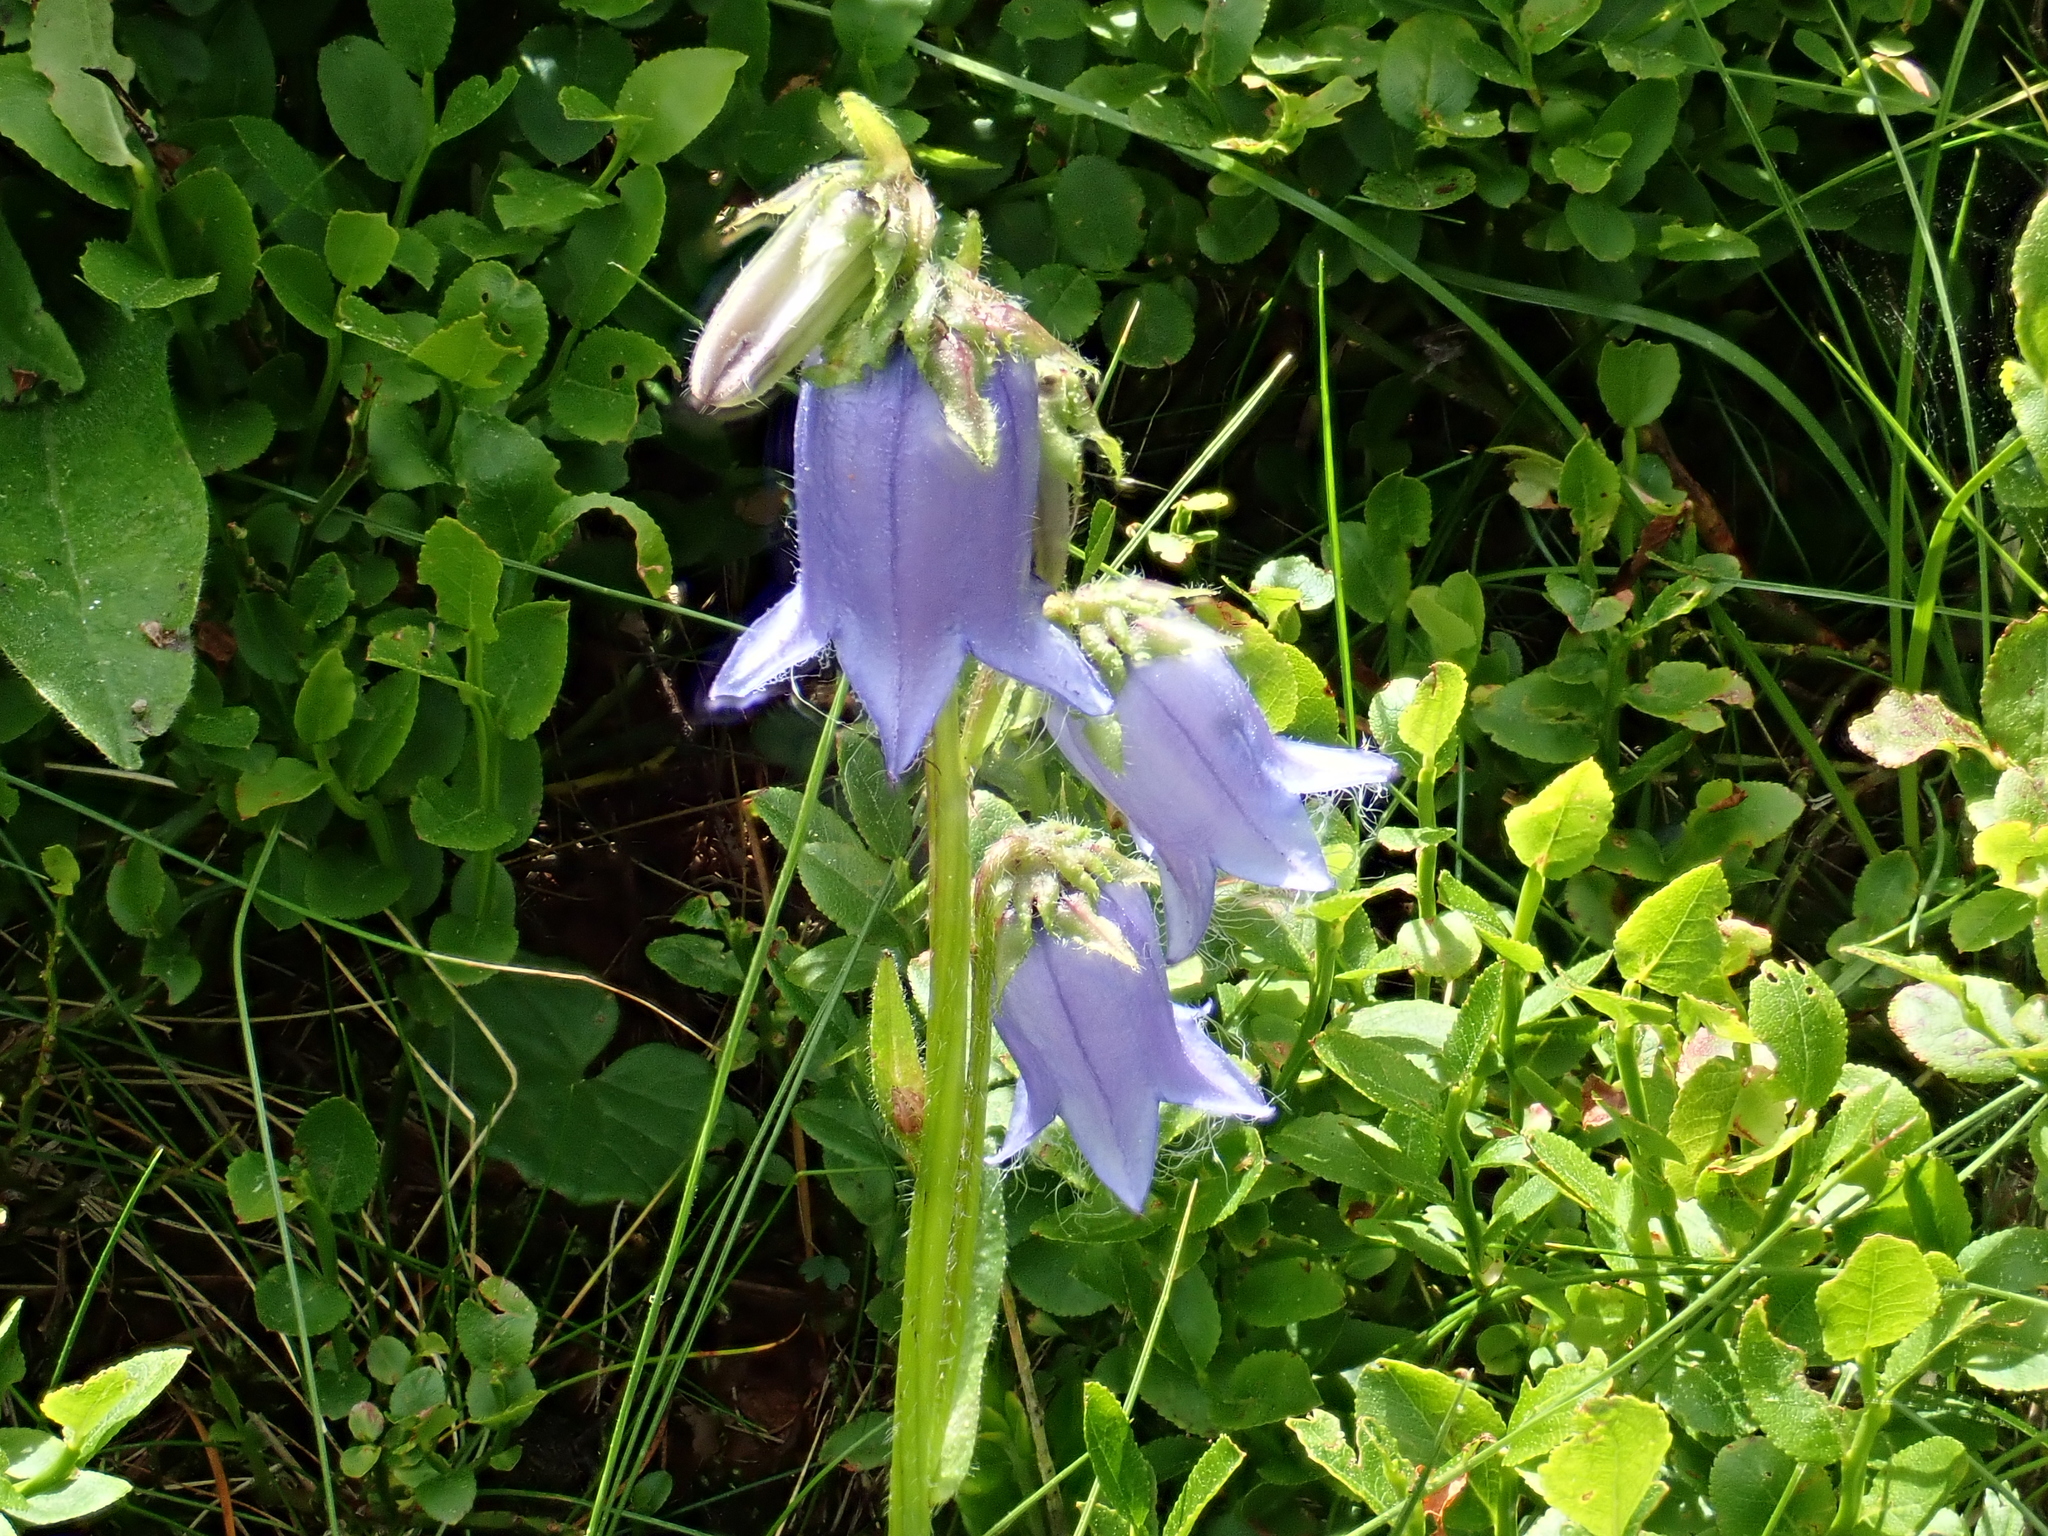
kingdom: Plantae
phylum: Tracheophyta
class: Magnoliopsida
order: Asterales
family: Campanulaceae
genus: Campanula
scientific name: Campanula barbata
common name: Bearded bellflower
